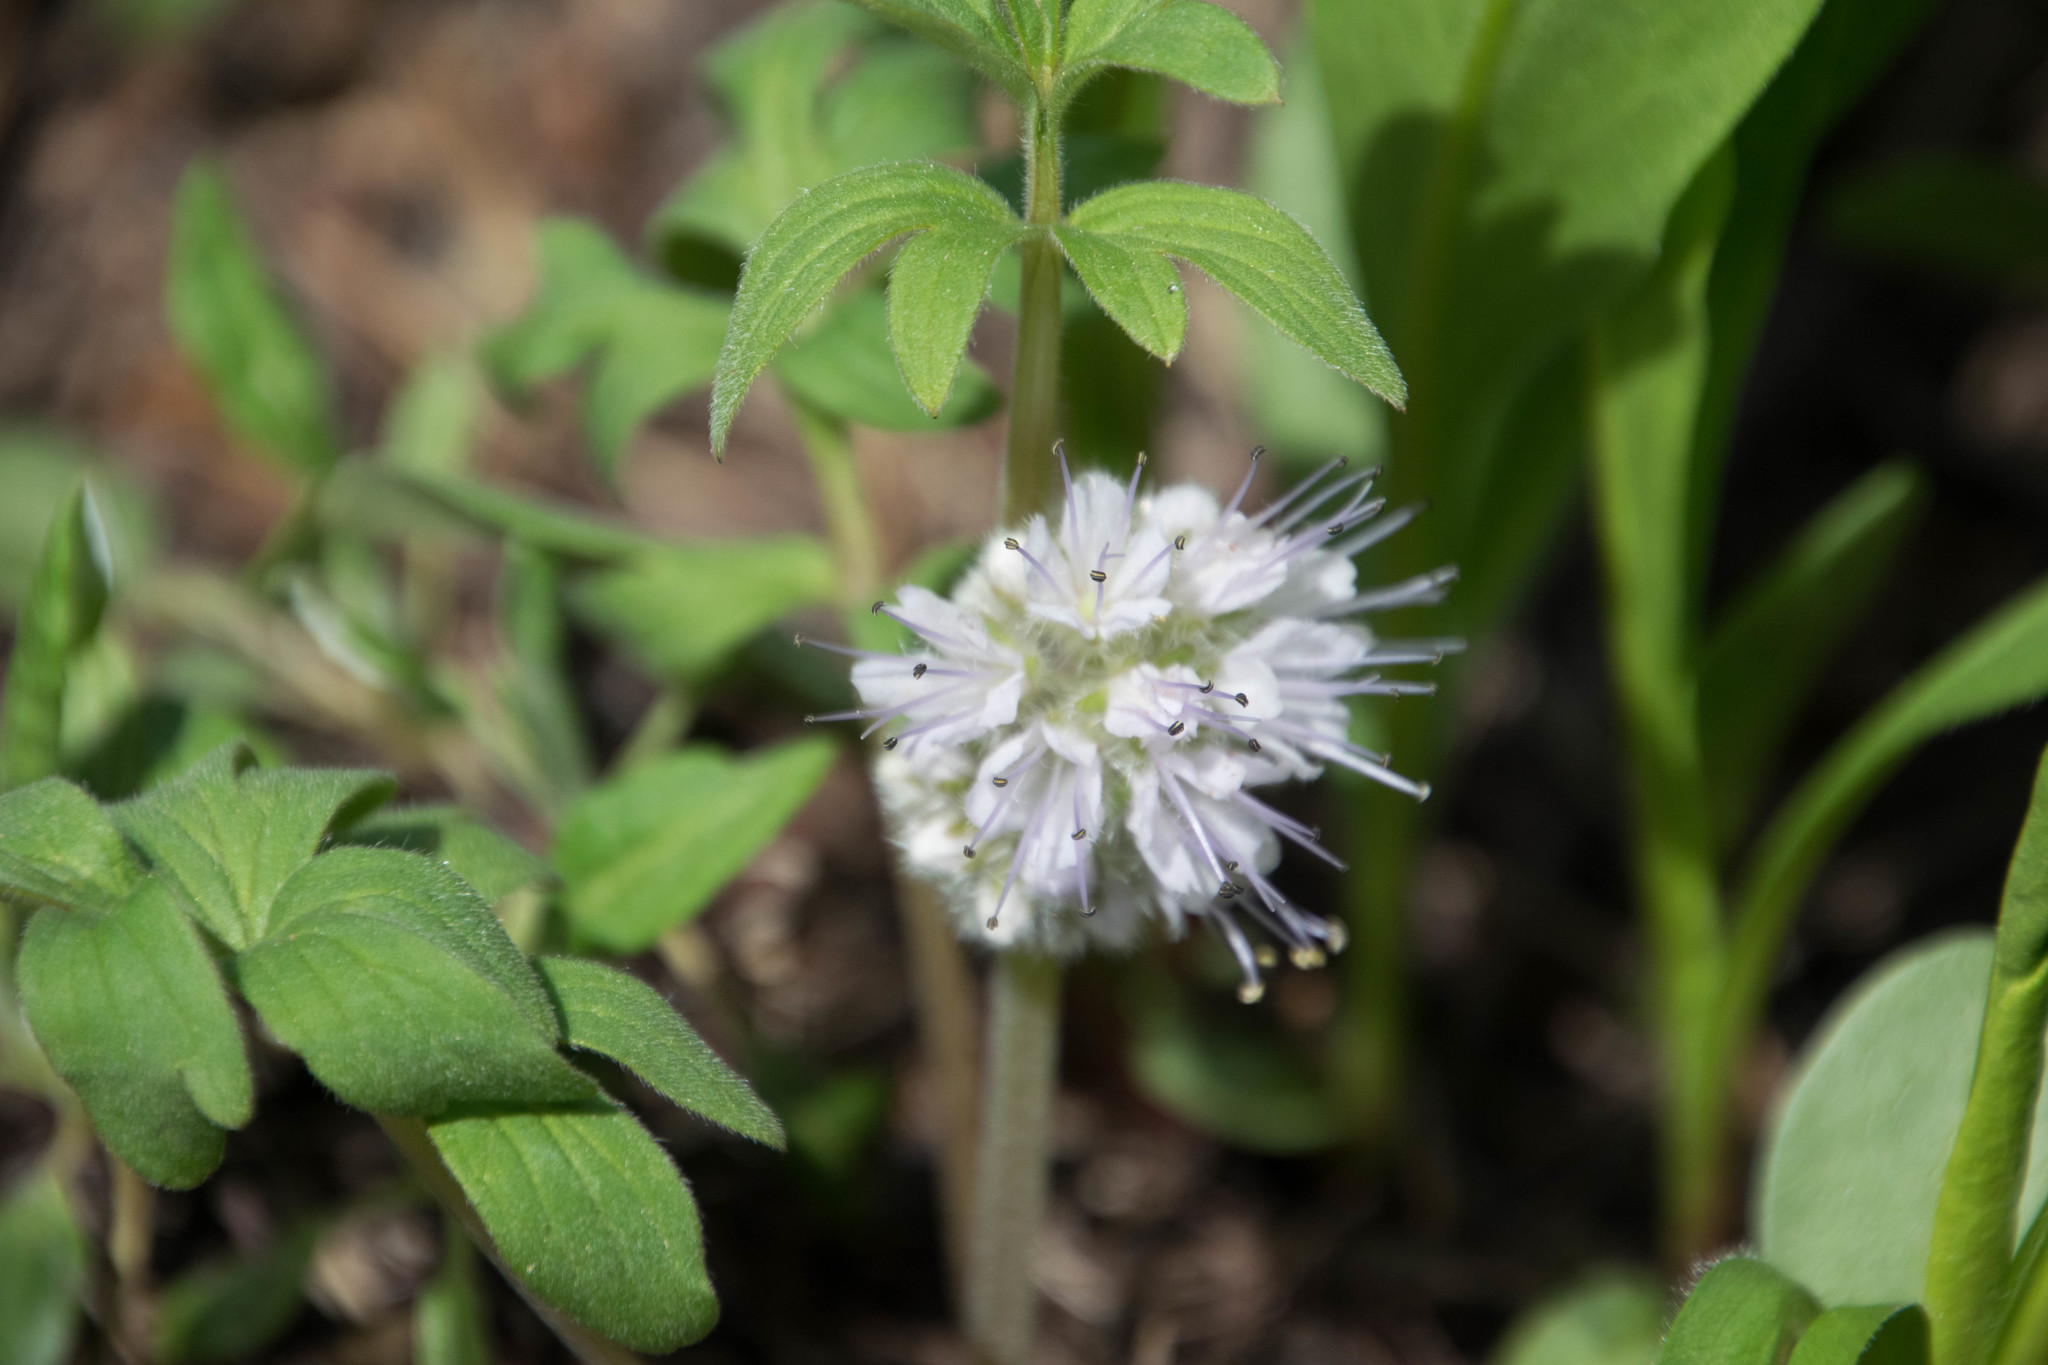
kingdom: Plantae
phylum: Tracheophyta
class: Magnoliopsida
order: Boraginales
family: Hydrophyllaceae
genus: Hydrophyllum
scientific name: Hydrophyllum capitatum
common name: Woollen-breeches
